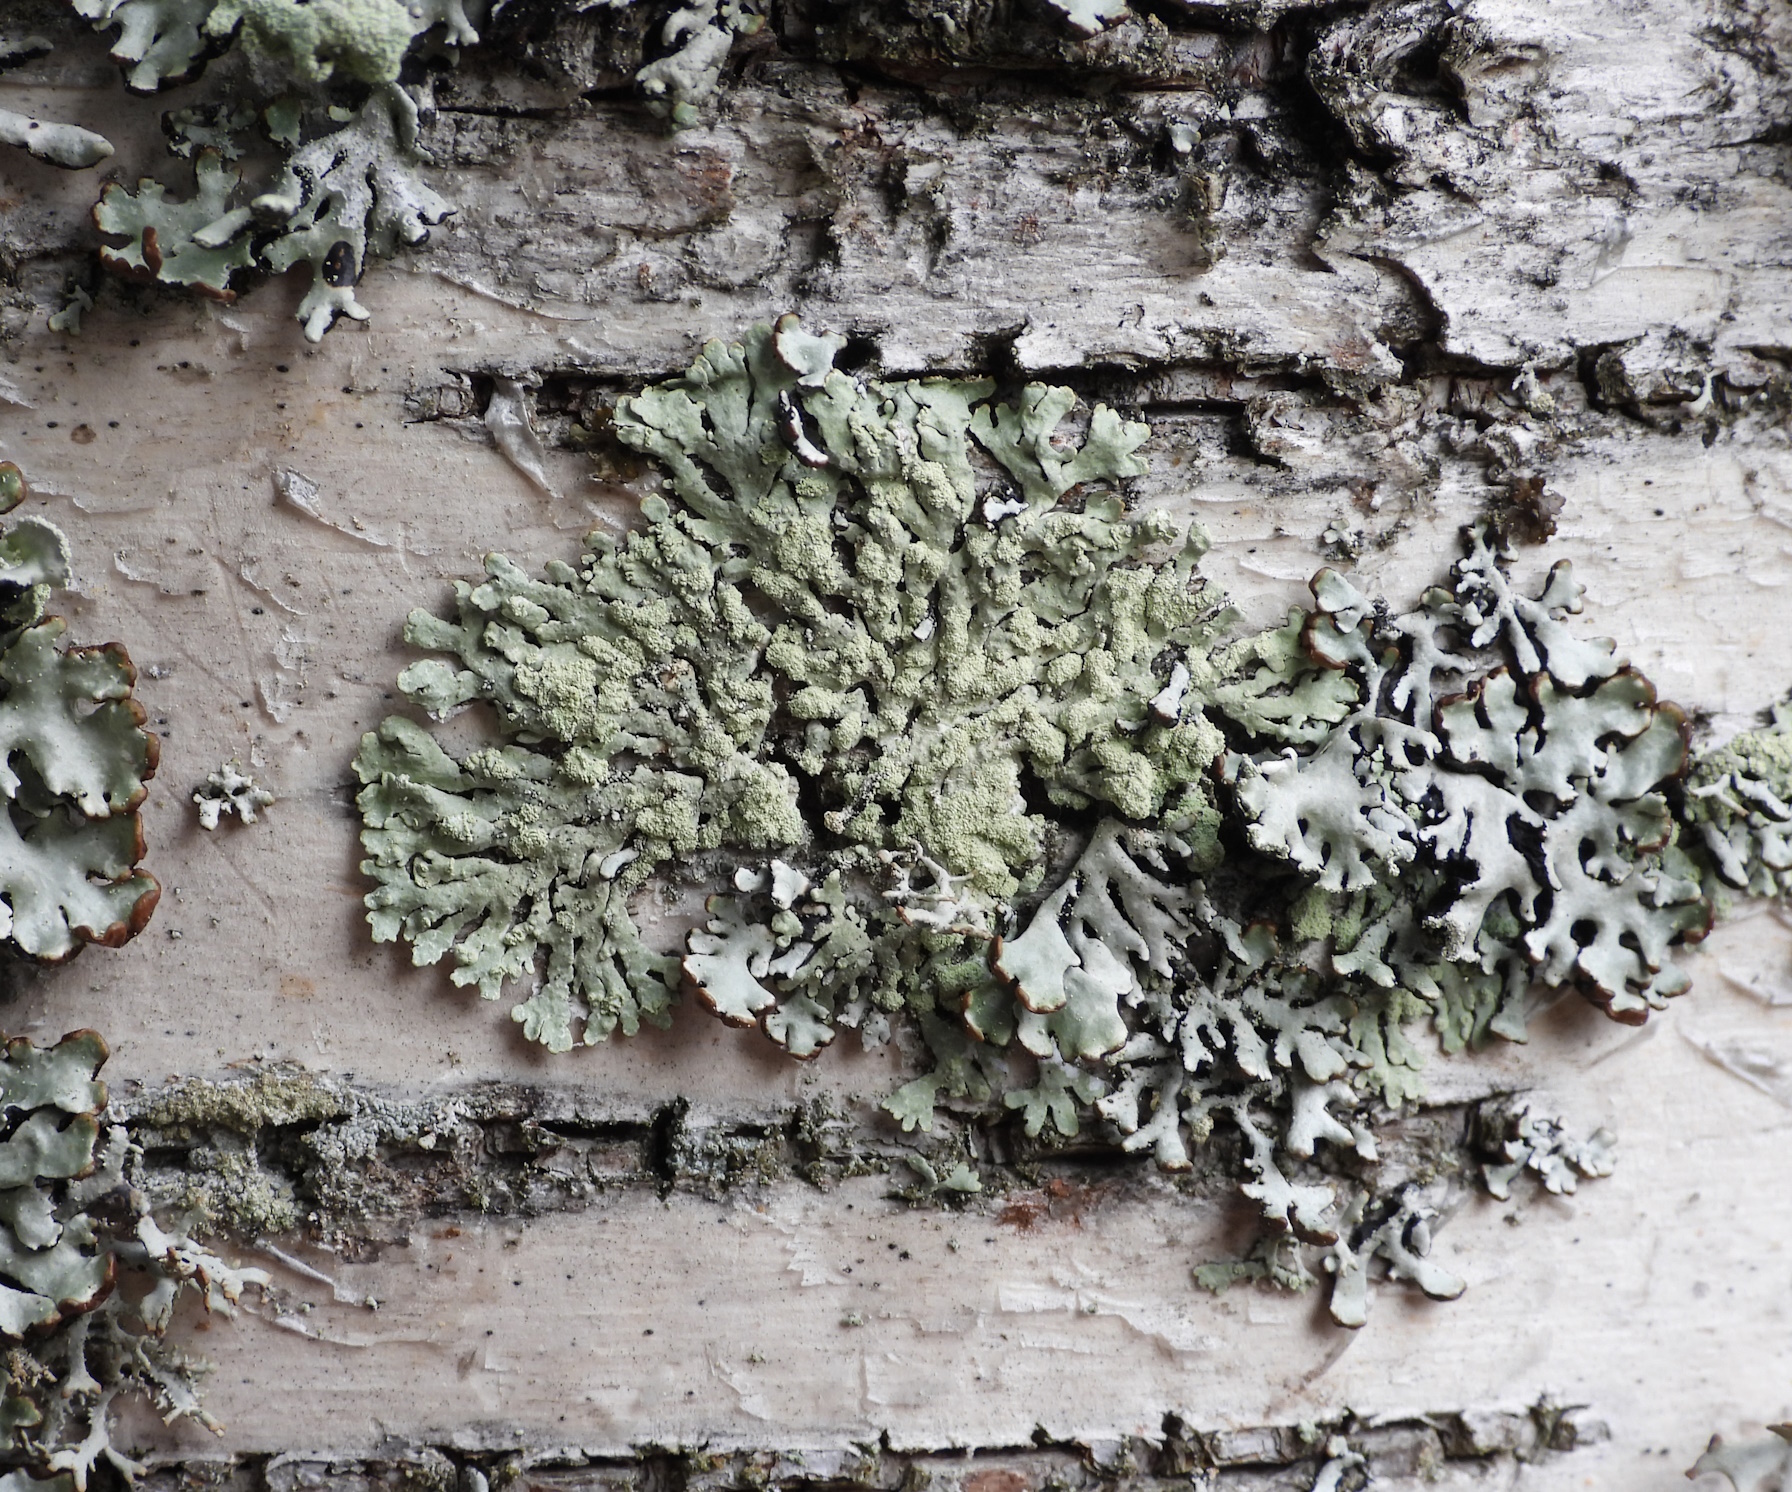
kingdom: Fungi
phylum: Ascomycota
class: Lecanoromycetes
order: Lecanorales
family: Parmeliaceae
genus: Parmeliopsis
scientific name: Parmeliopsis ambigua
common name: Green starburst lichen
